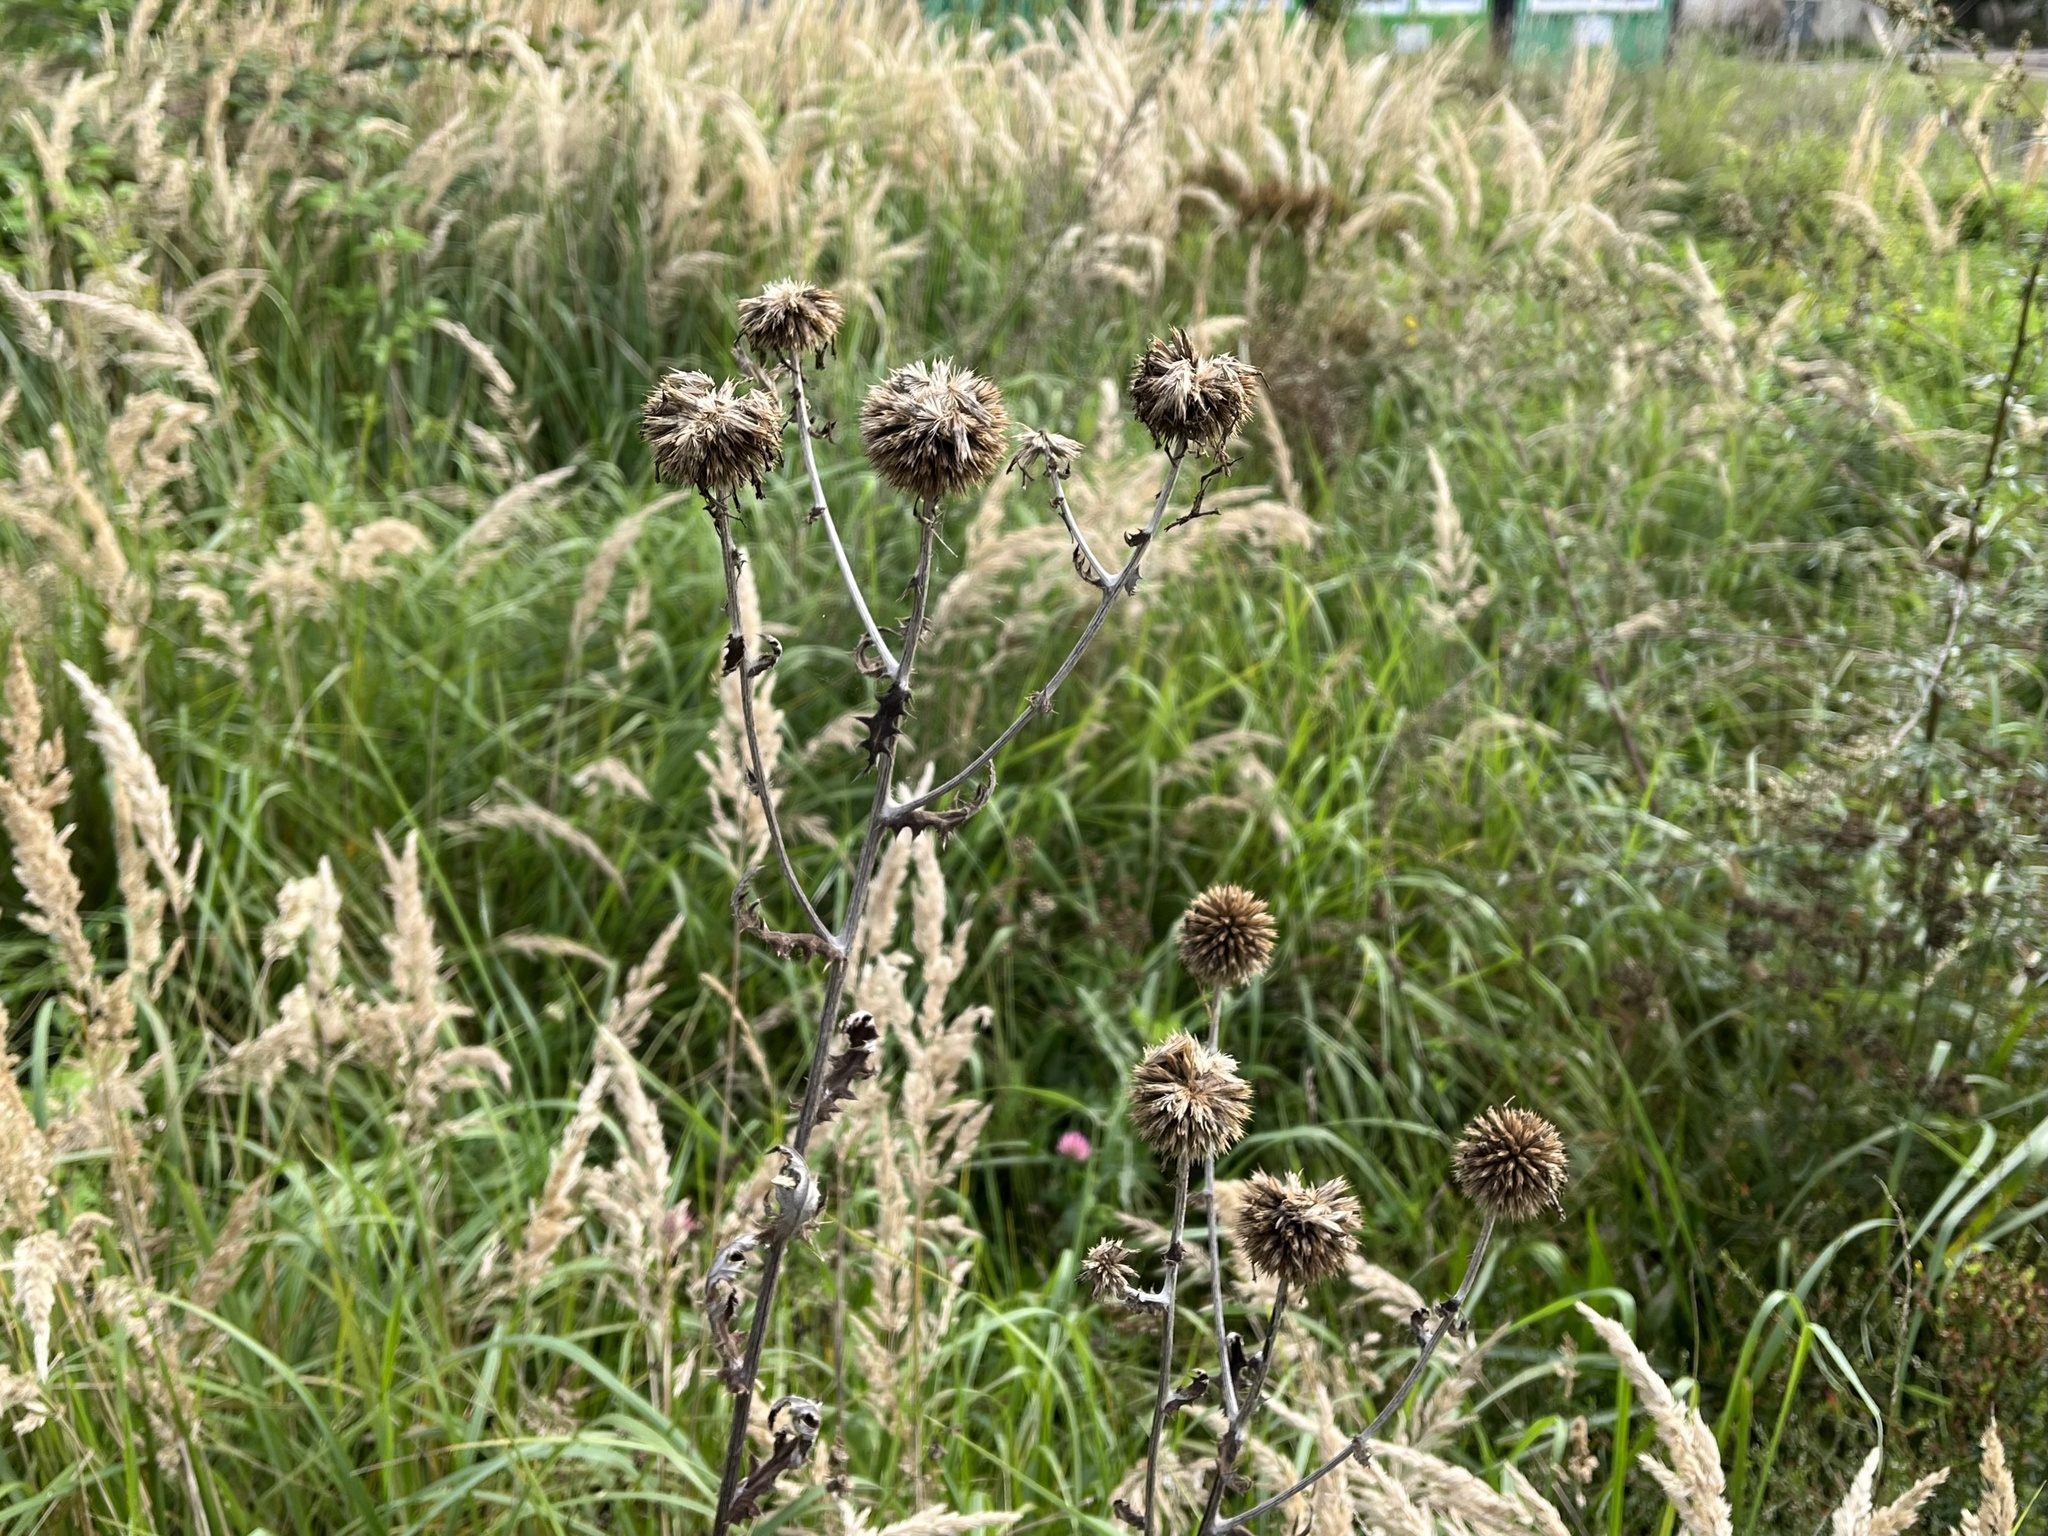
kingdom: Plantae
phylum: Tracheophyta
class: Magnoliopsida
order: Asterales
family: Asteraceae
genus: Echinops
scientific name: Echinops sphaerocephalus
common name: Glandular globe-thistle
